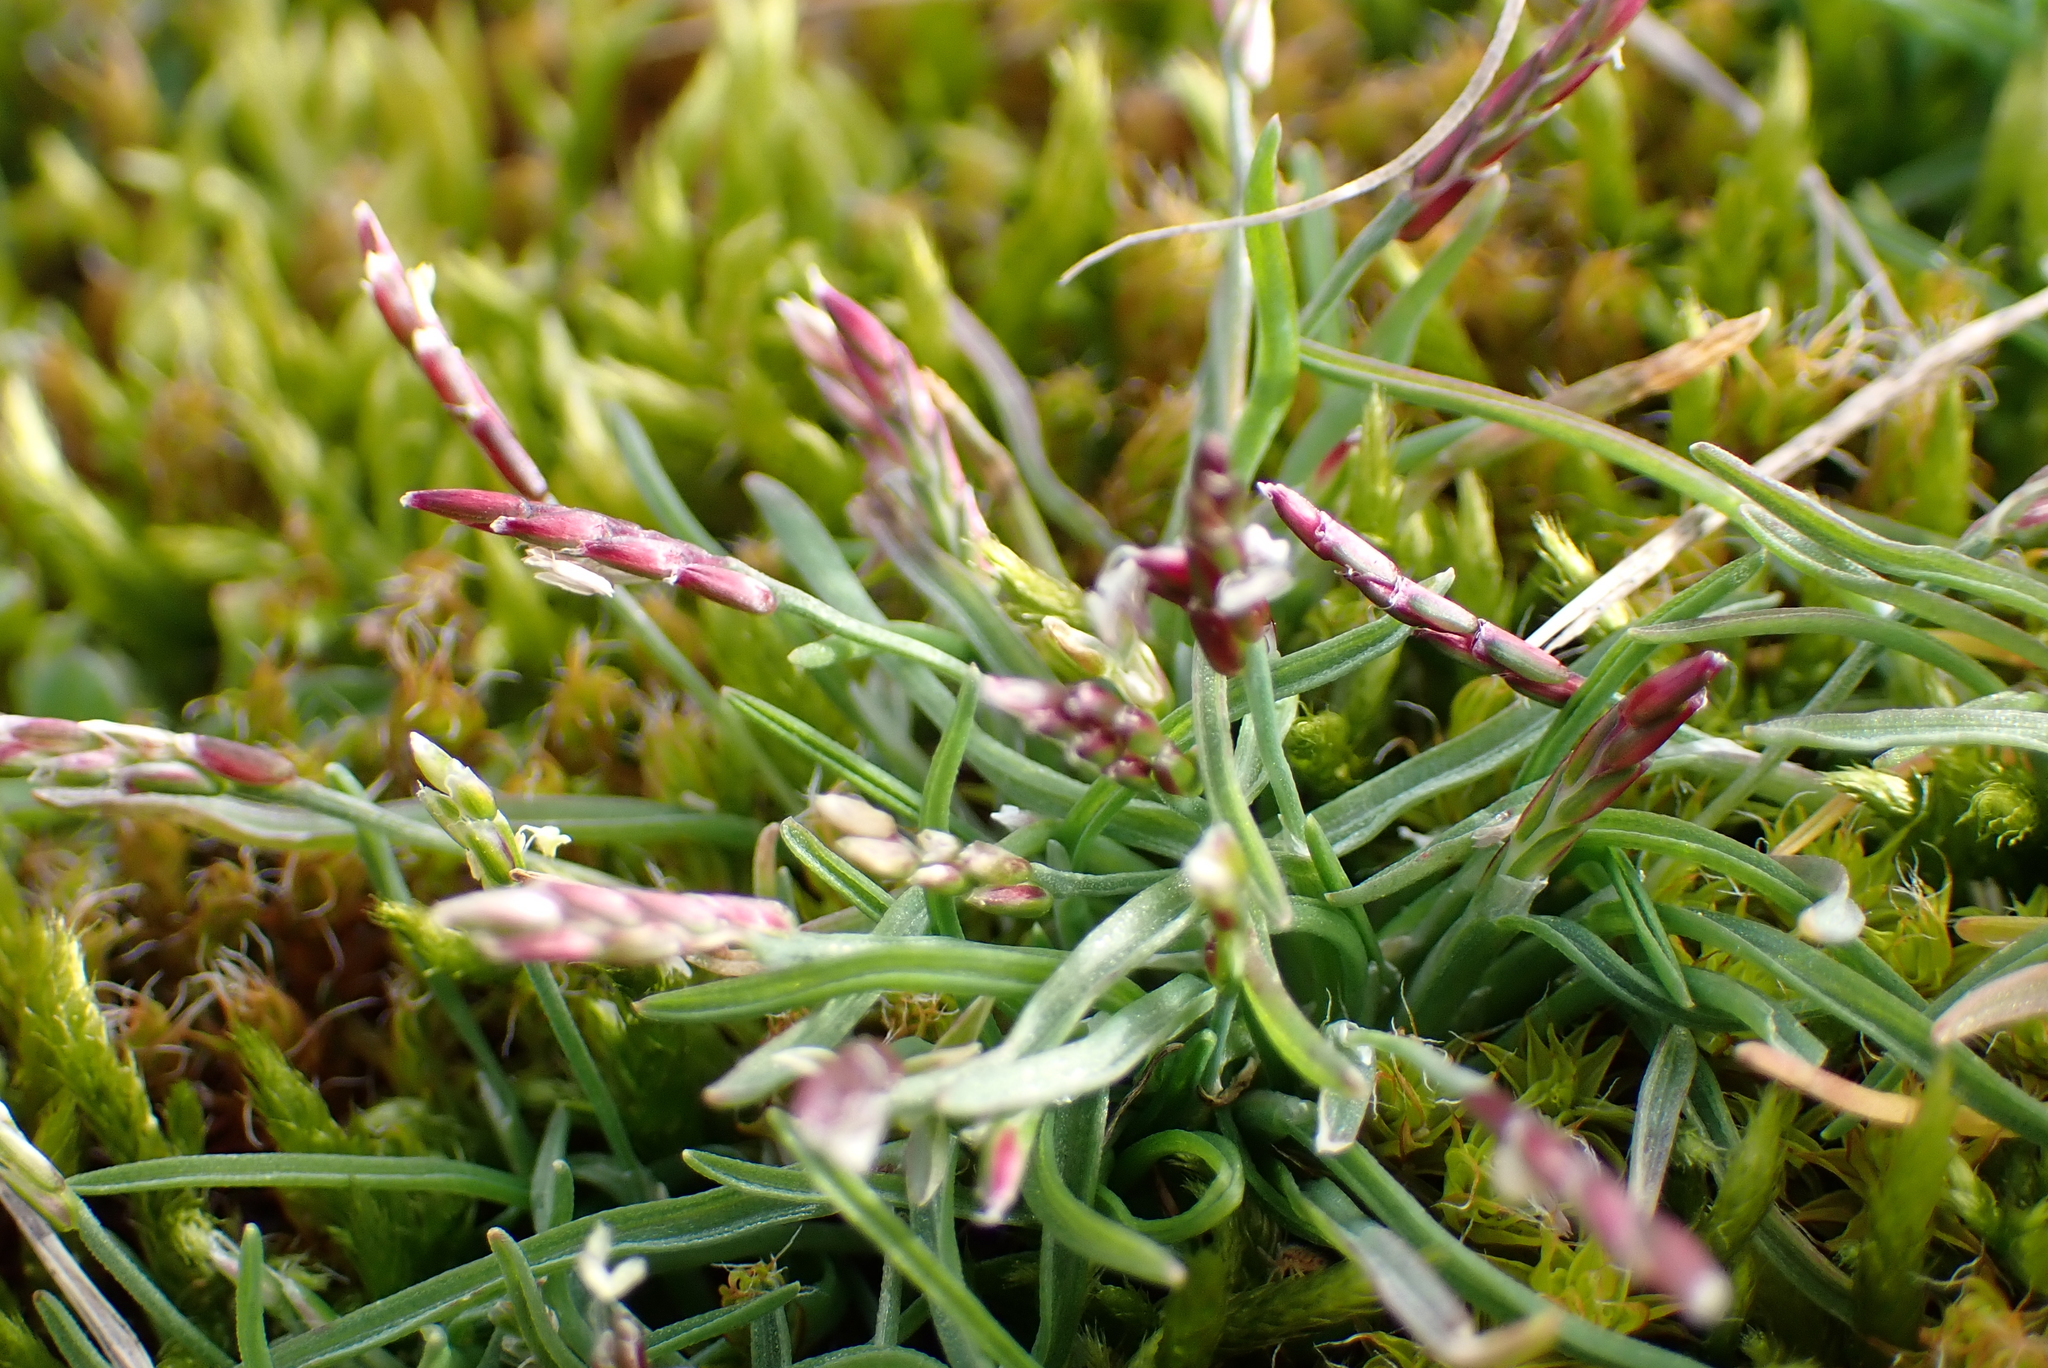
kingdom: Plantae
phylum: Tracheophyta
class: Liliopsida
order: Poales
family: Poaceae
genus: Mibora
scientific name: Mibora minima
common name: Early sand-grass
